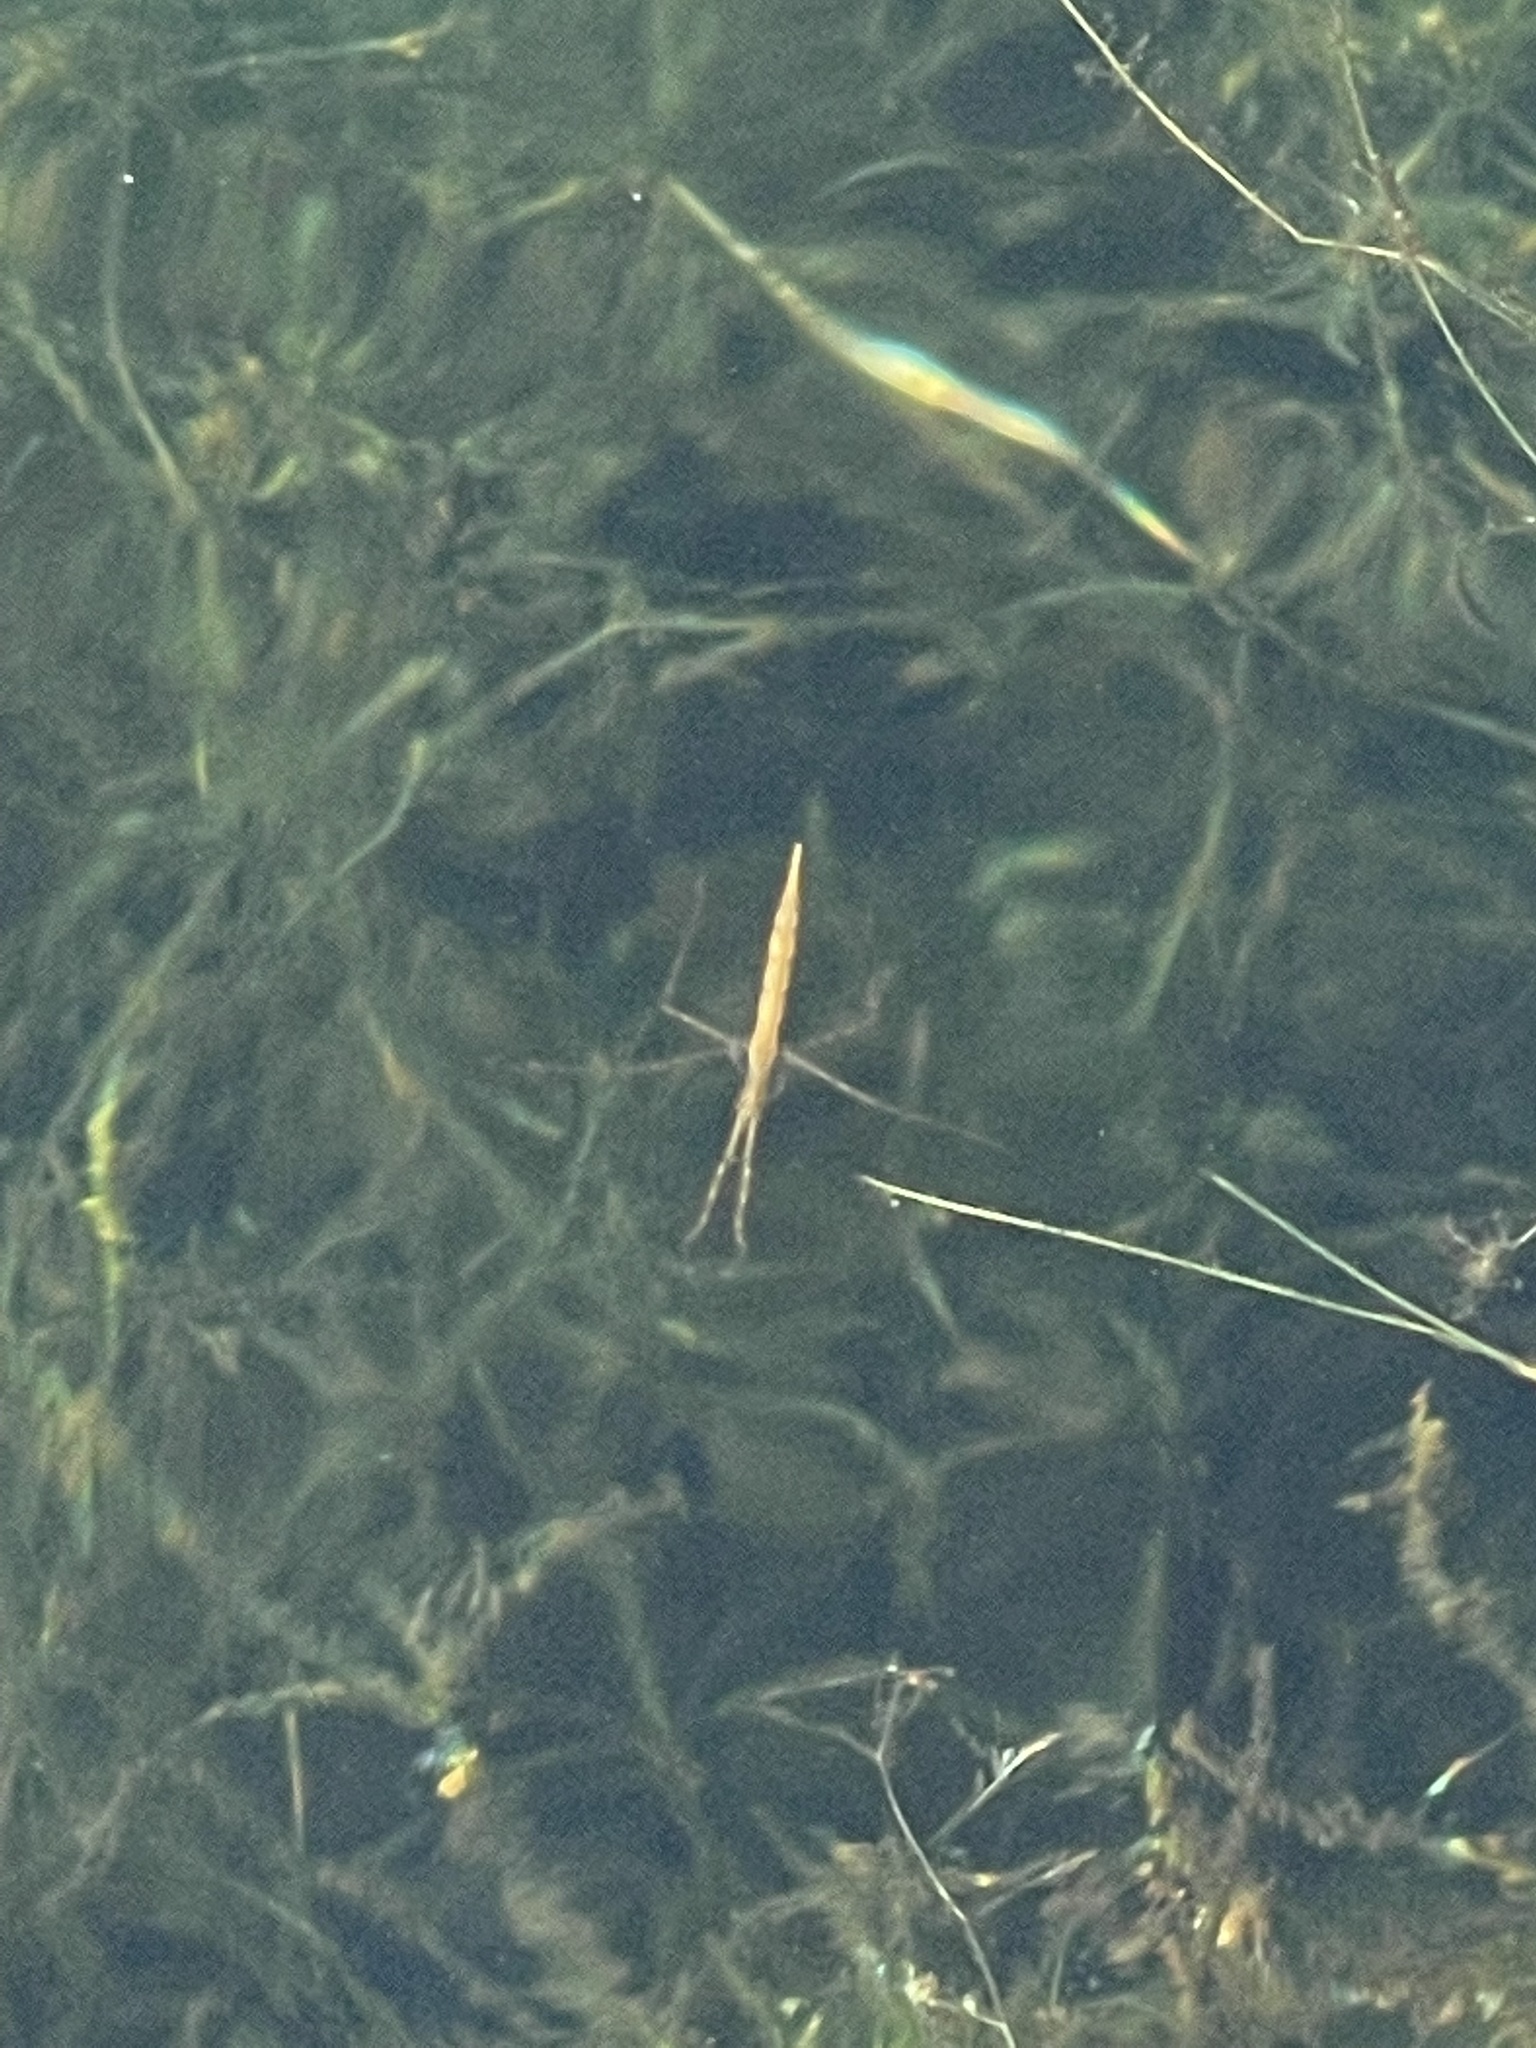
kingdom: Animalia
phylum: Arthropoda
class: Insecta
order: Hemiptera
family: Nepidae
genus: Ranatra
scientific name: Ranatra
